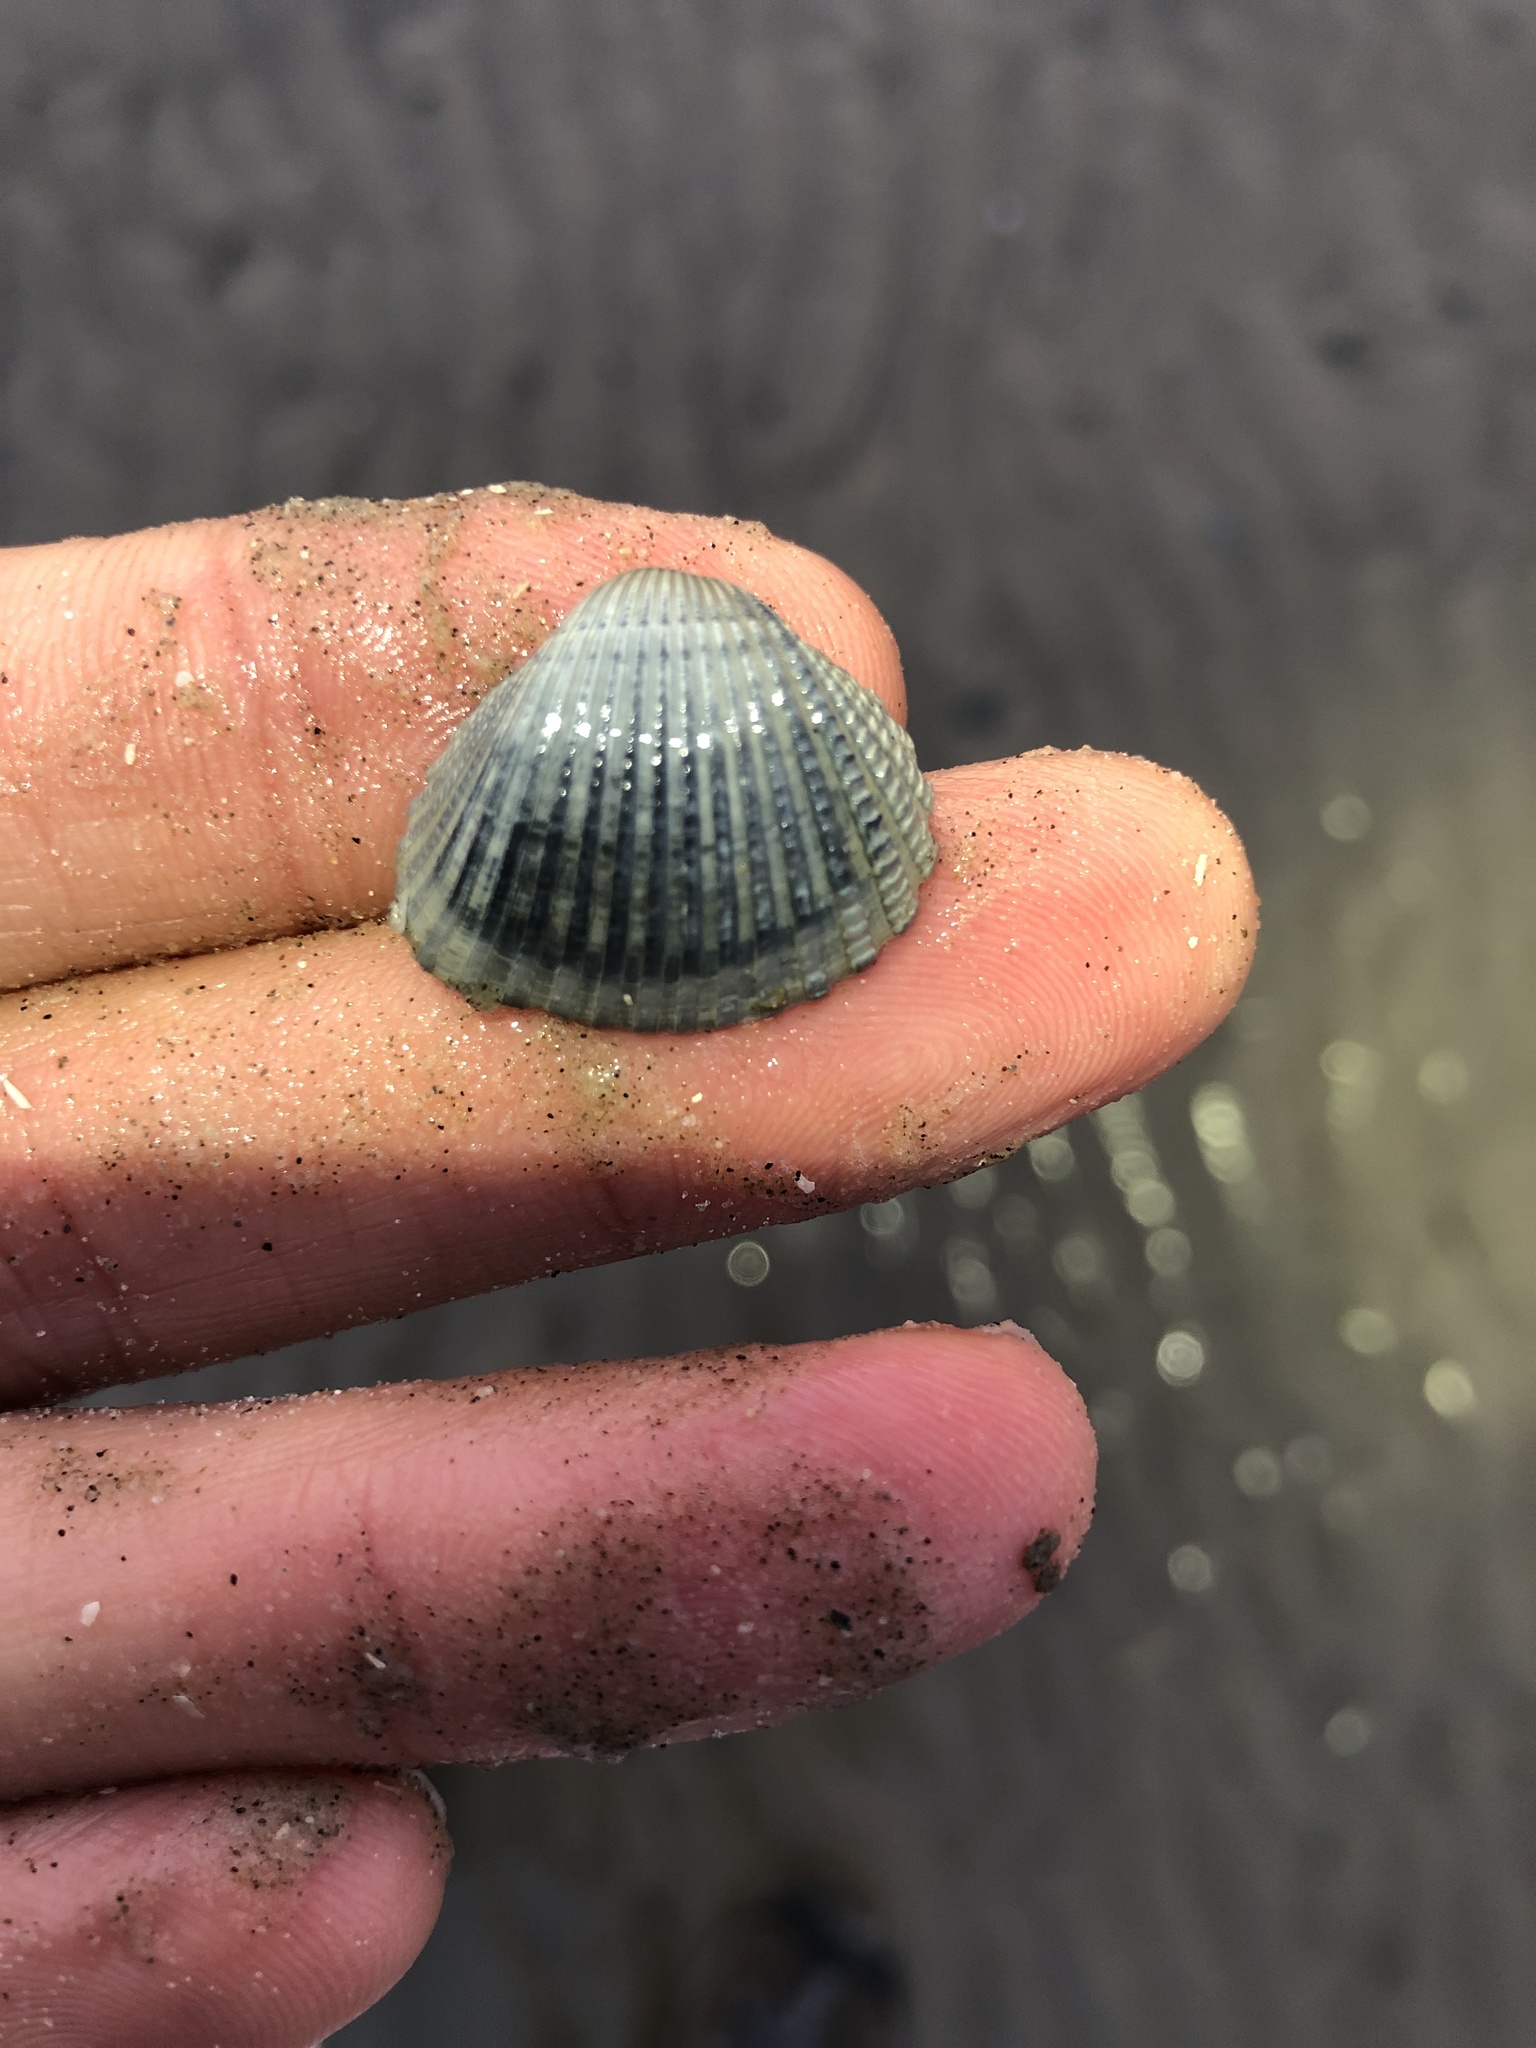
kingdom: Animalia
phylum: Mollusca
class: Bivalvia
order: Arcida
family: Arcidae
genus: Anadara
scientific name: Anadara brasiliana
